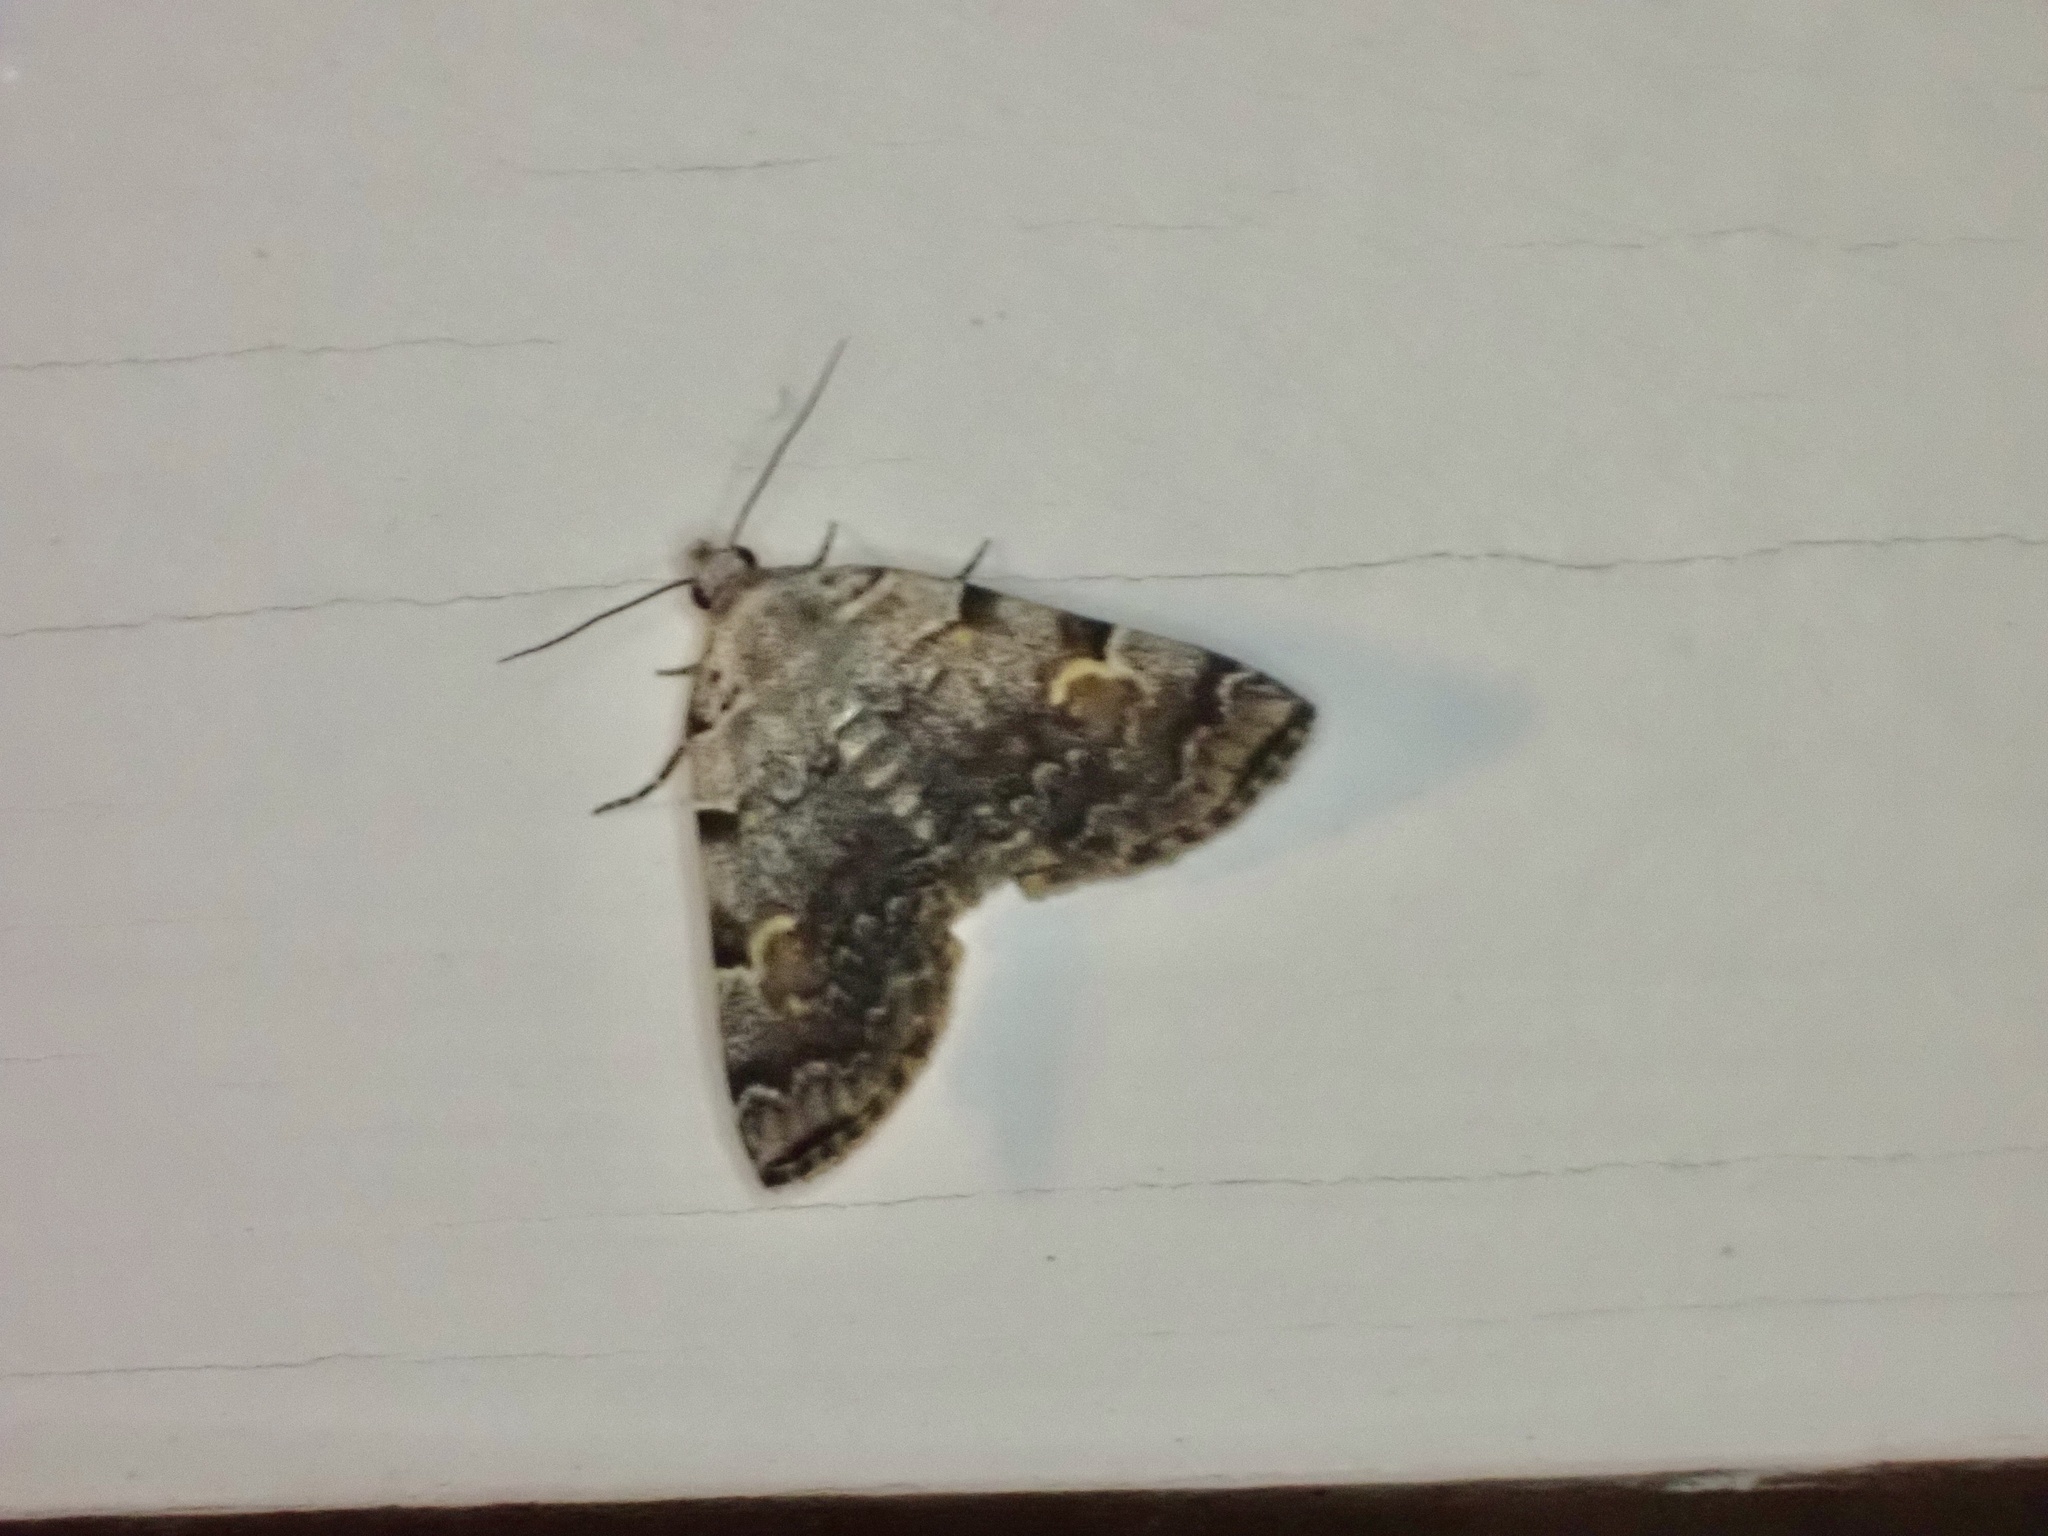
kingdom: Animalia
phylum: Arthropoda
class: Insecta
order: Lepidoptera
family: Erebidae
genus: Idia
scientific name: Idia americalis
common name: American idia moth
